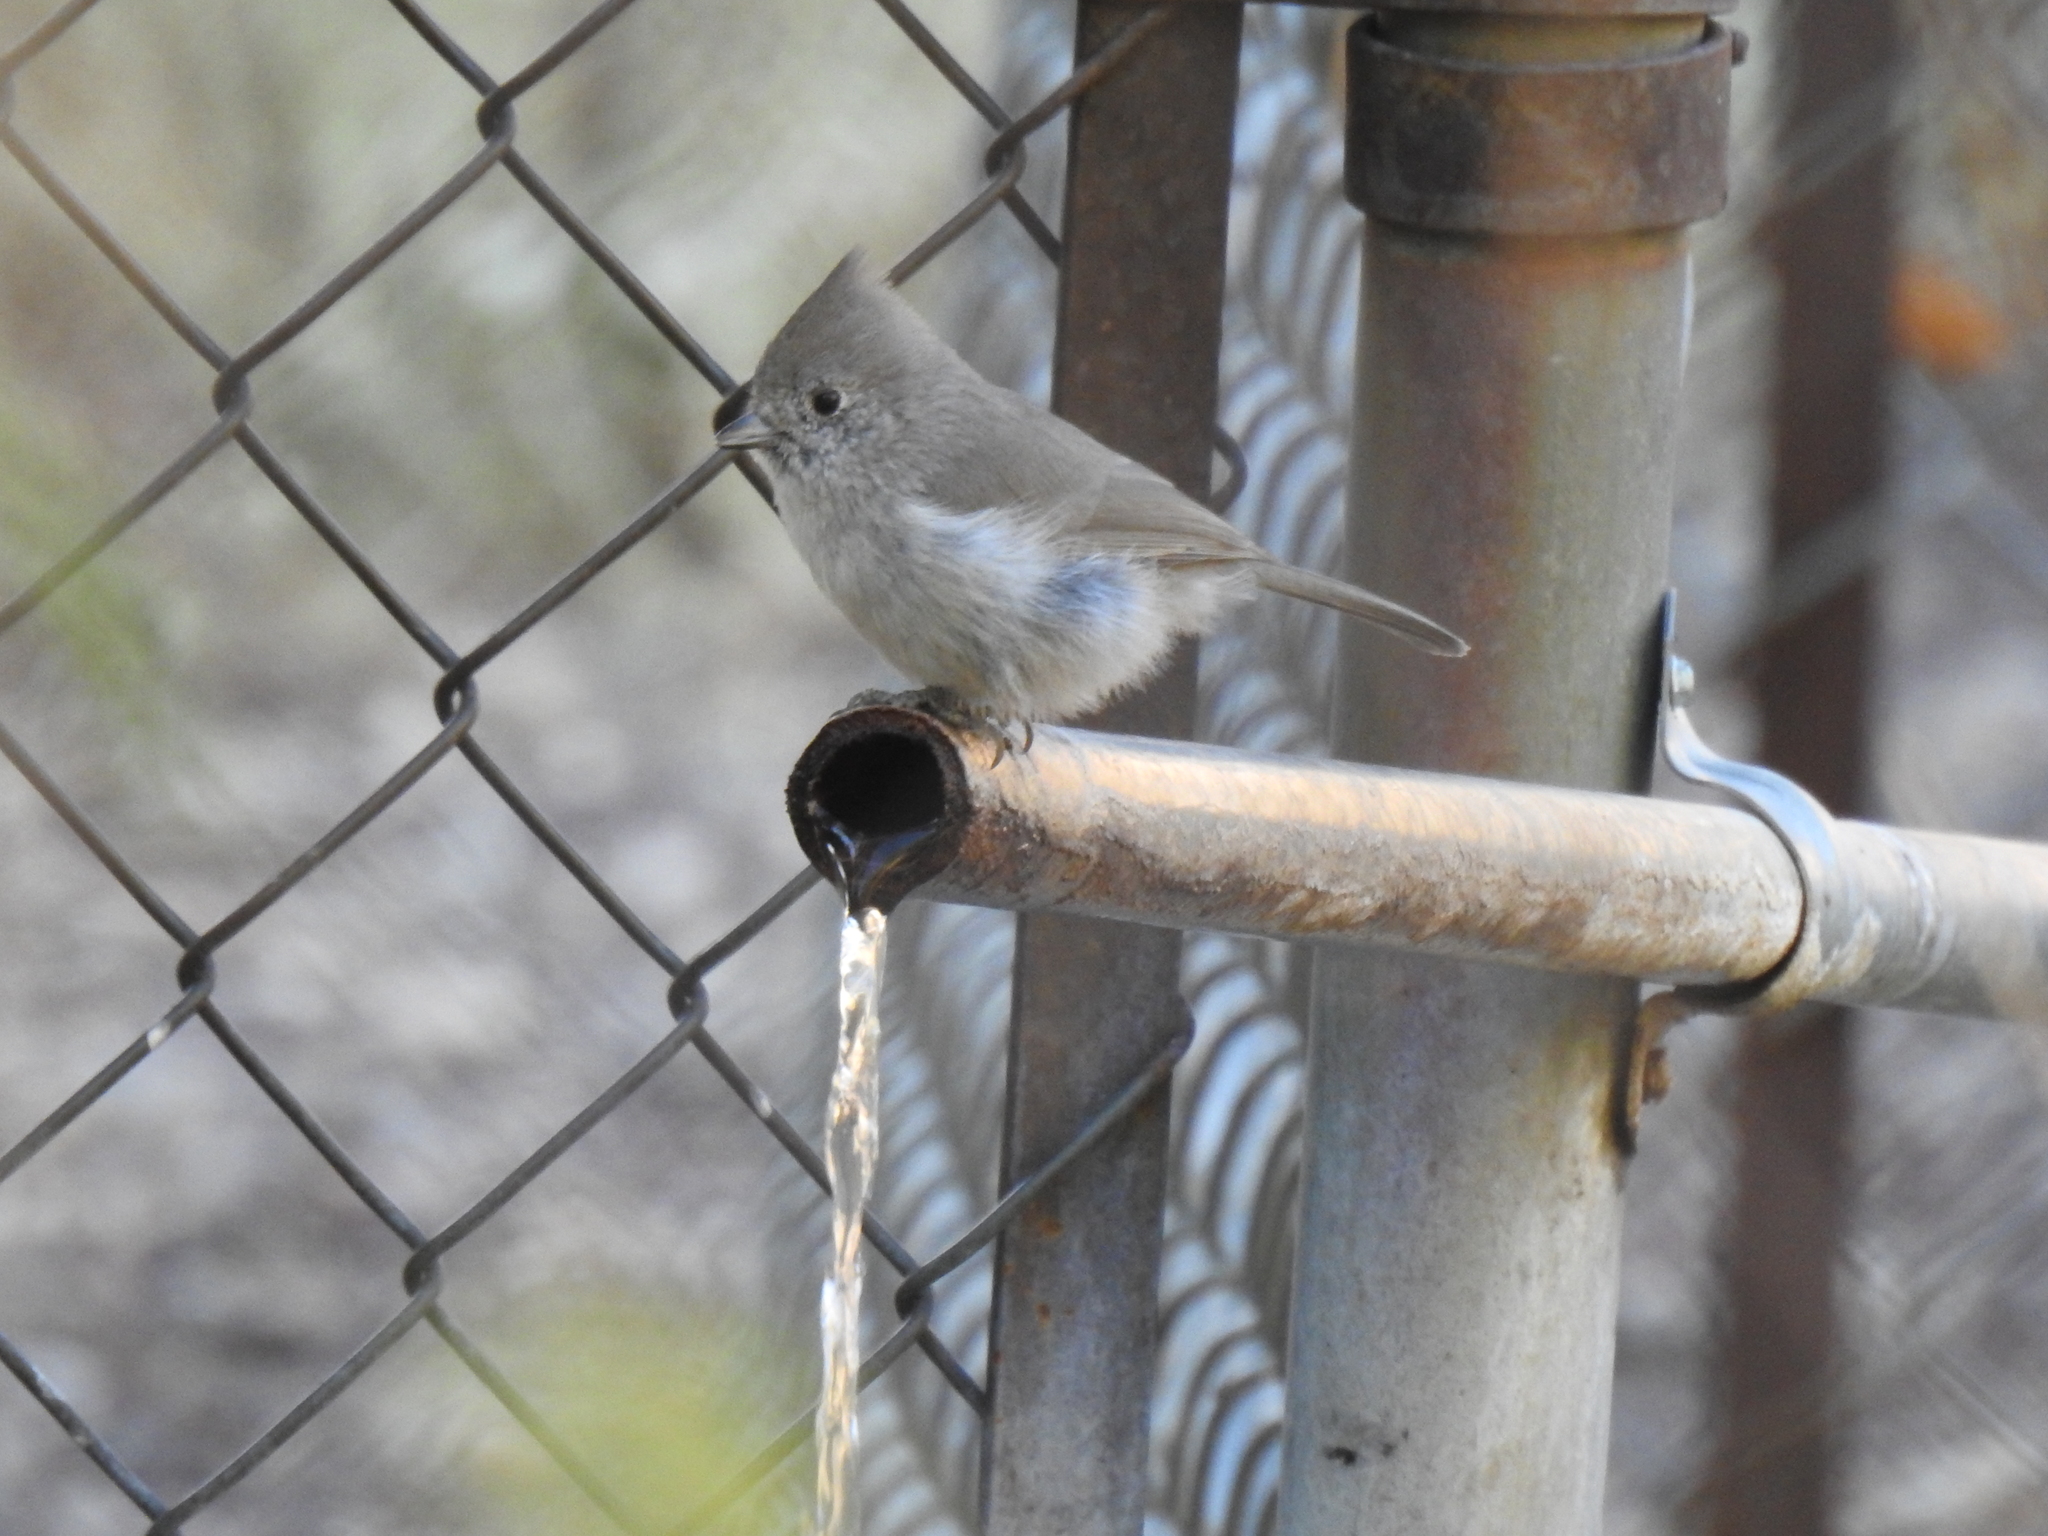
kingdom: Animalia
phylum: Chordata
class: Aves
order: Passeriformes
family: Paridae
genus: Baeolophus
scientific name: Baeolophus inornatus
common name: Oak titmouse
